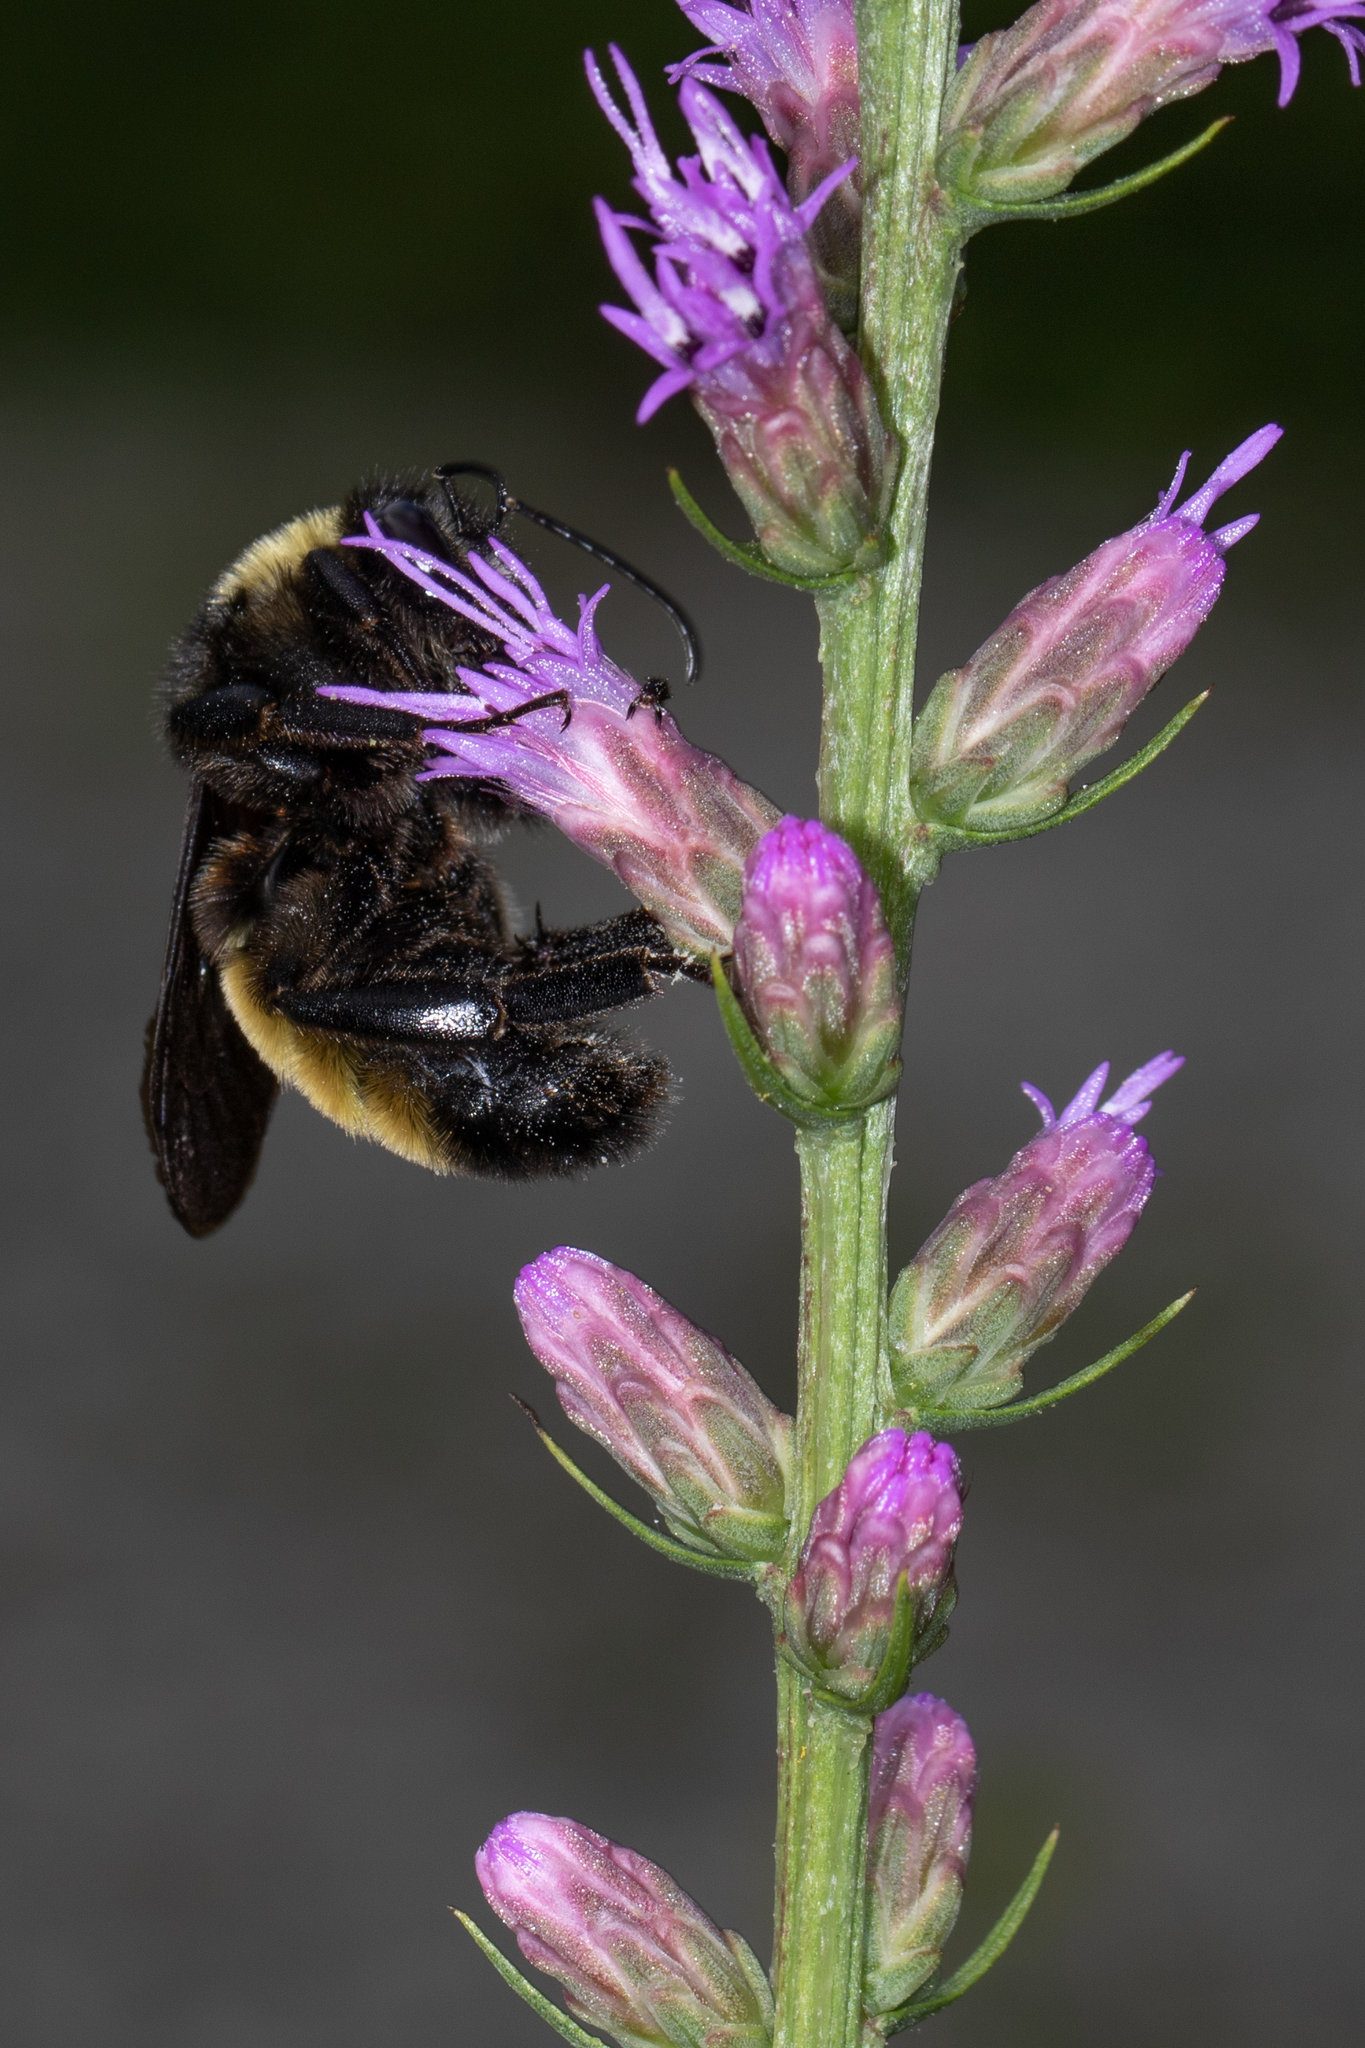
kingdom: Animalia
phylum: Arthropoda
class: Insecta
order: Hymenoptera
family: Apidae
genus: Bombus
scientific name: Bombus pensylvanicus
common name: Bumble bee
